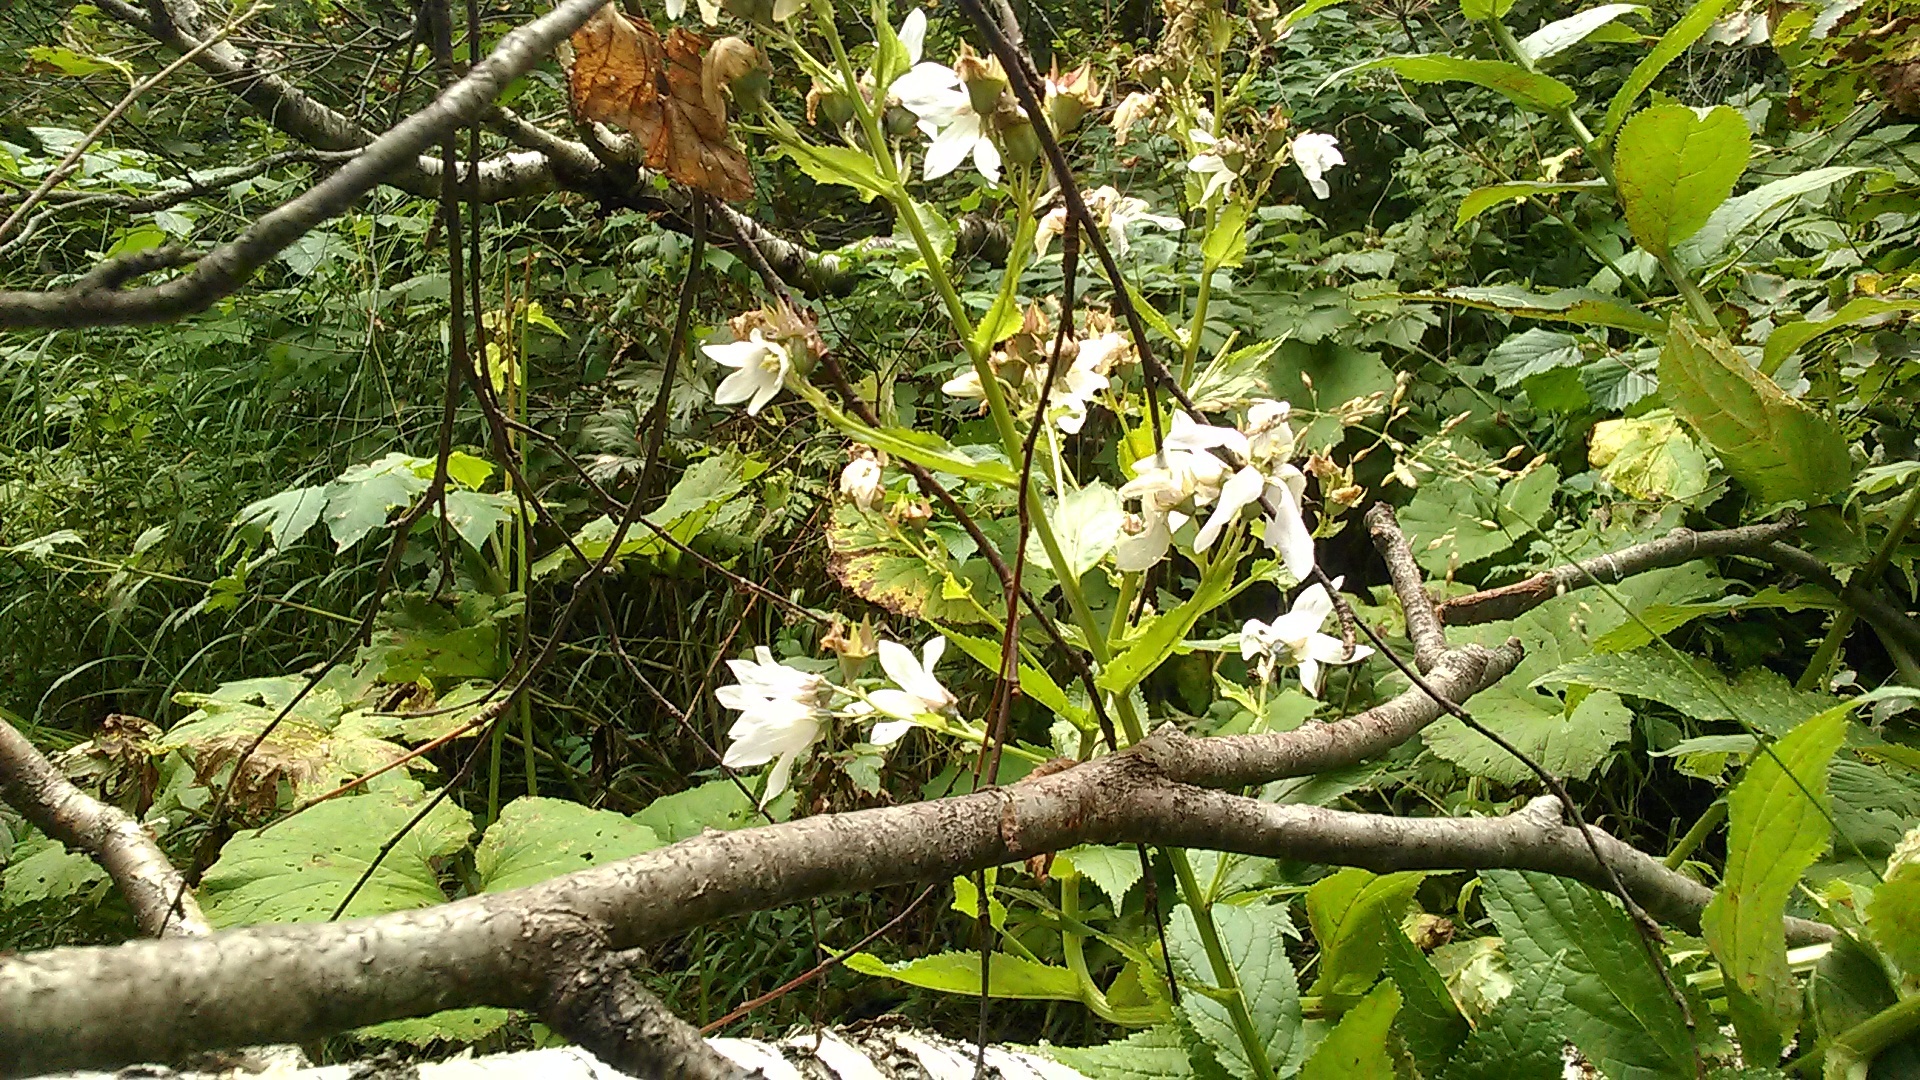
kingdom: Plantae
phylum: Tracheophyta
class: Magnoliopsida
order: Asterales
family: Campanulaceae
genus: Campanula
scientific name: Campanula lactiflora
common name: Milky bellflower
